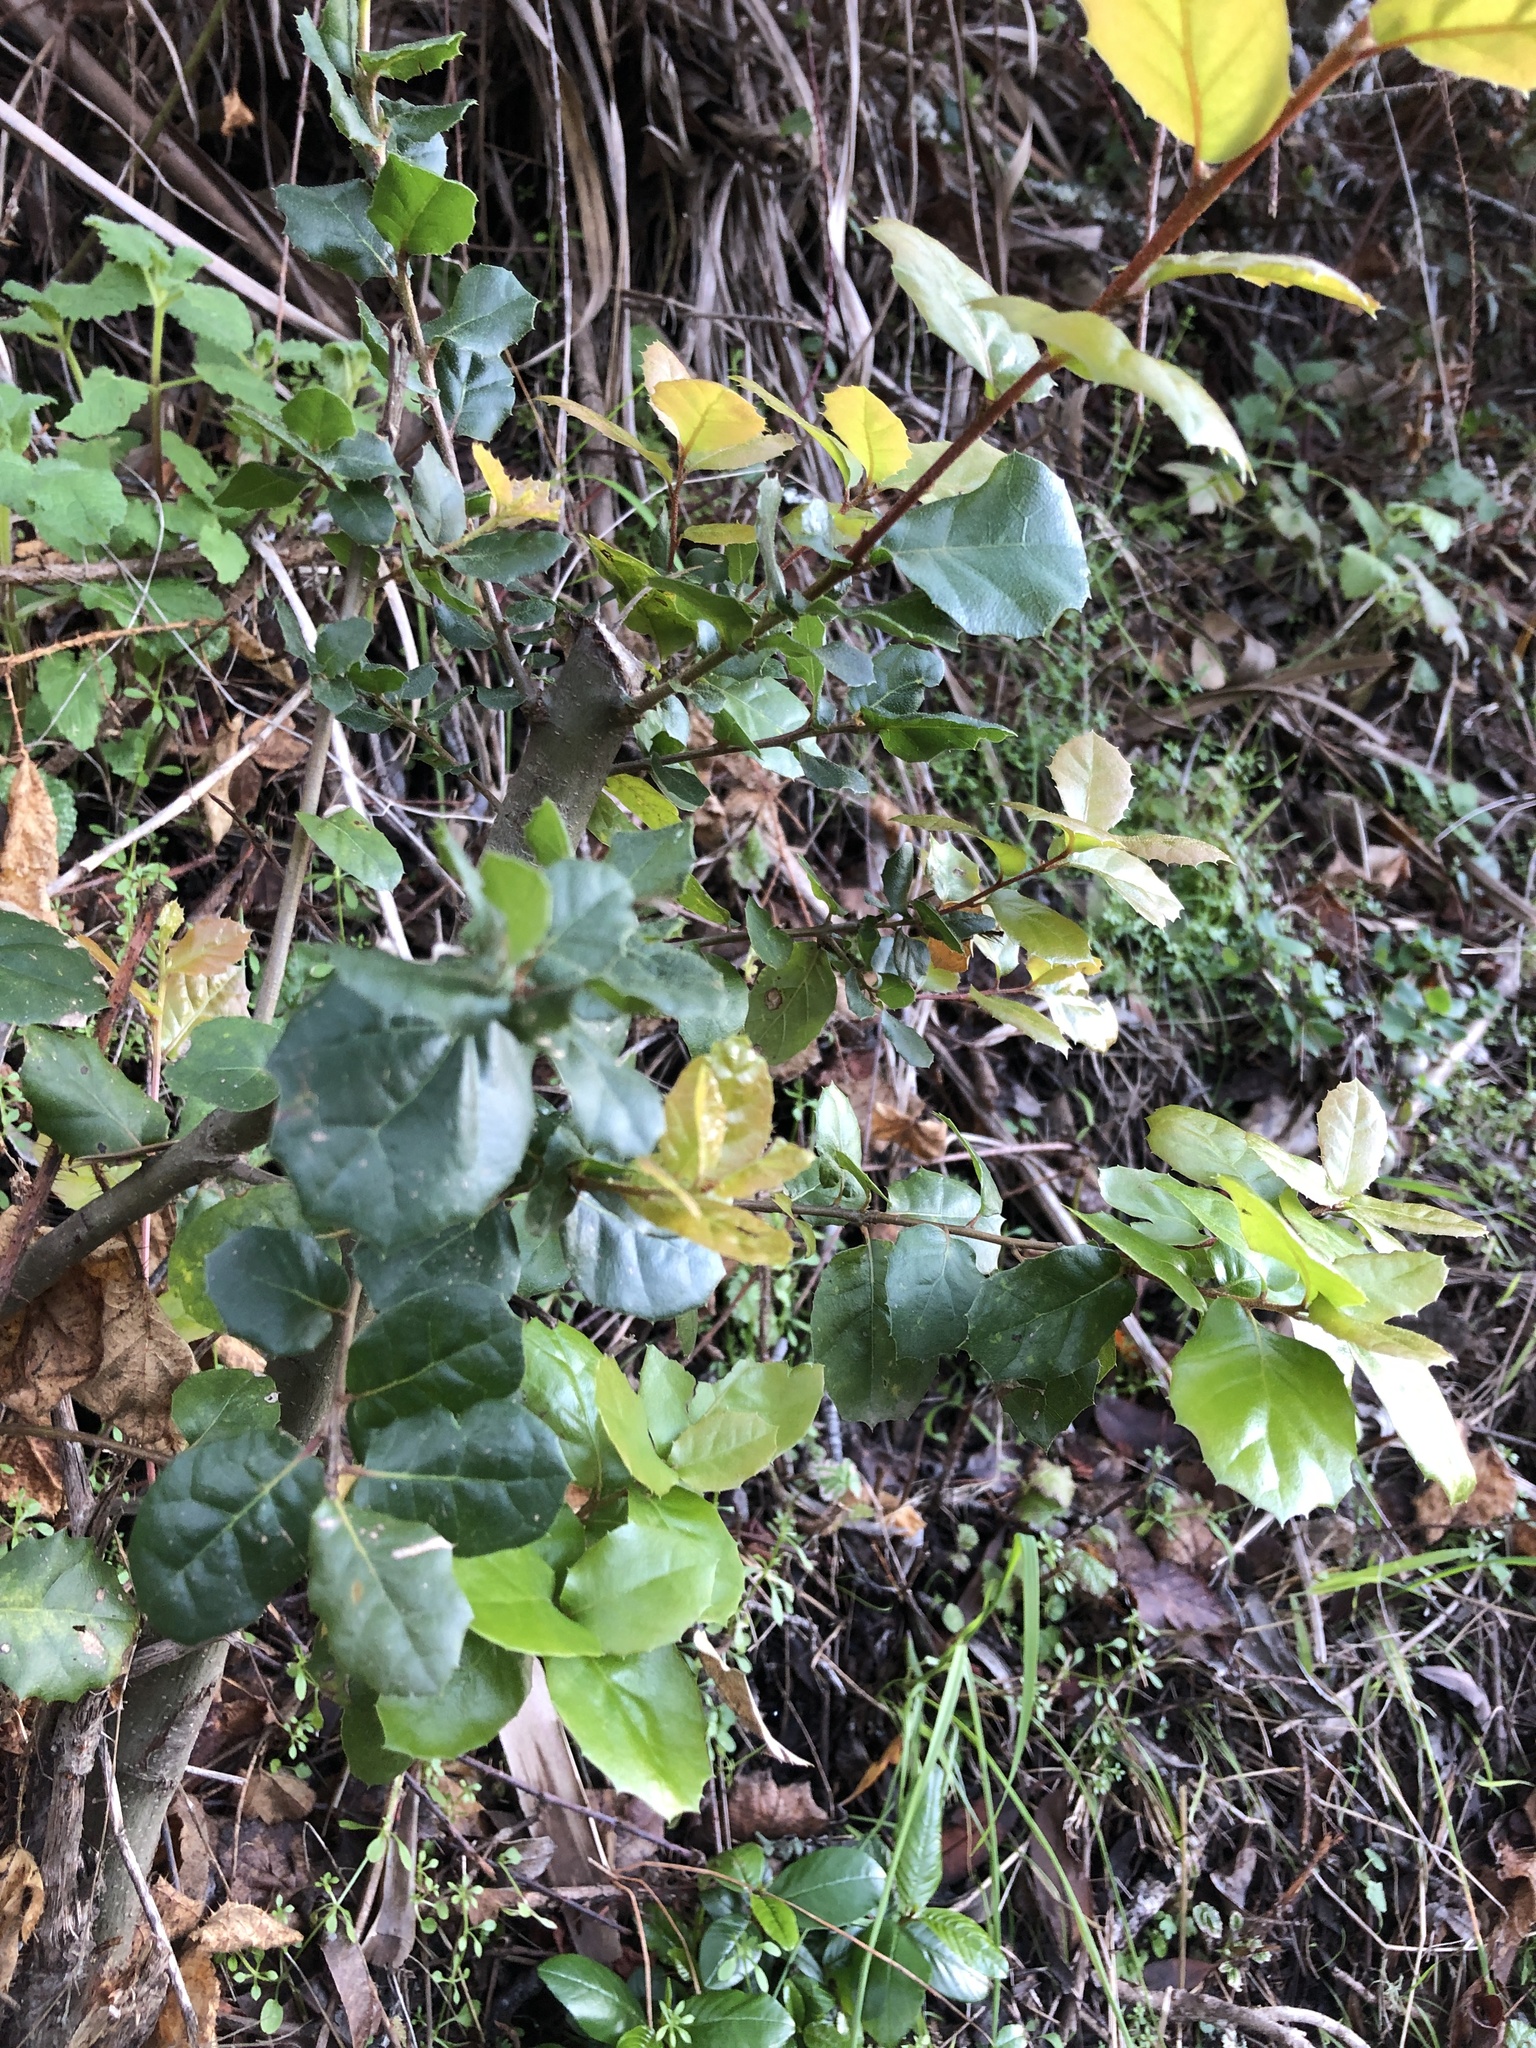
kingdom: Plantae
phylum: Tracheophyta
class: Magnoliopsida
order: Fagales
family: Fagaceae
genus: Quercus
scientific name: Quercus agrifolia
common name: California live oak
